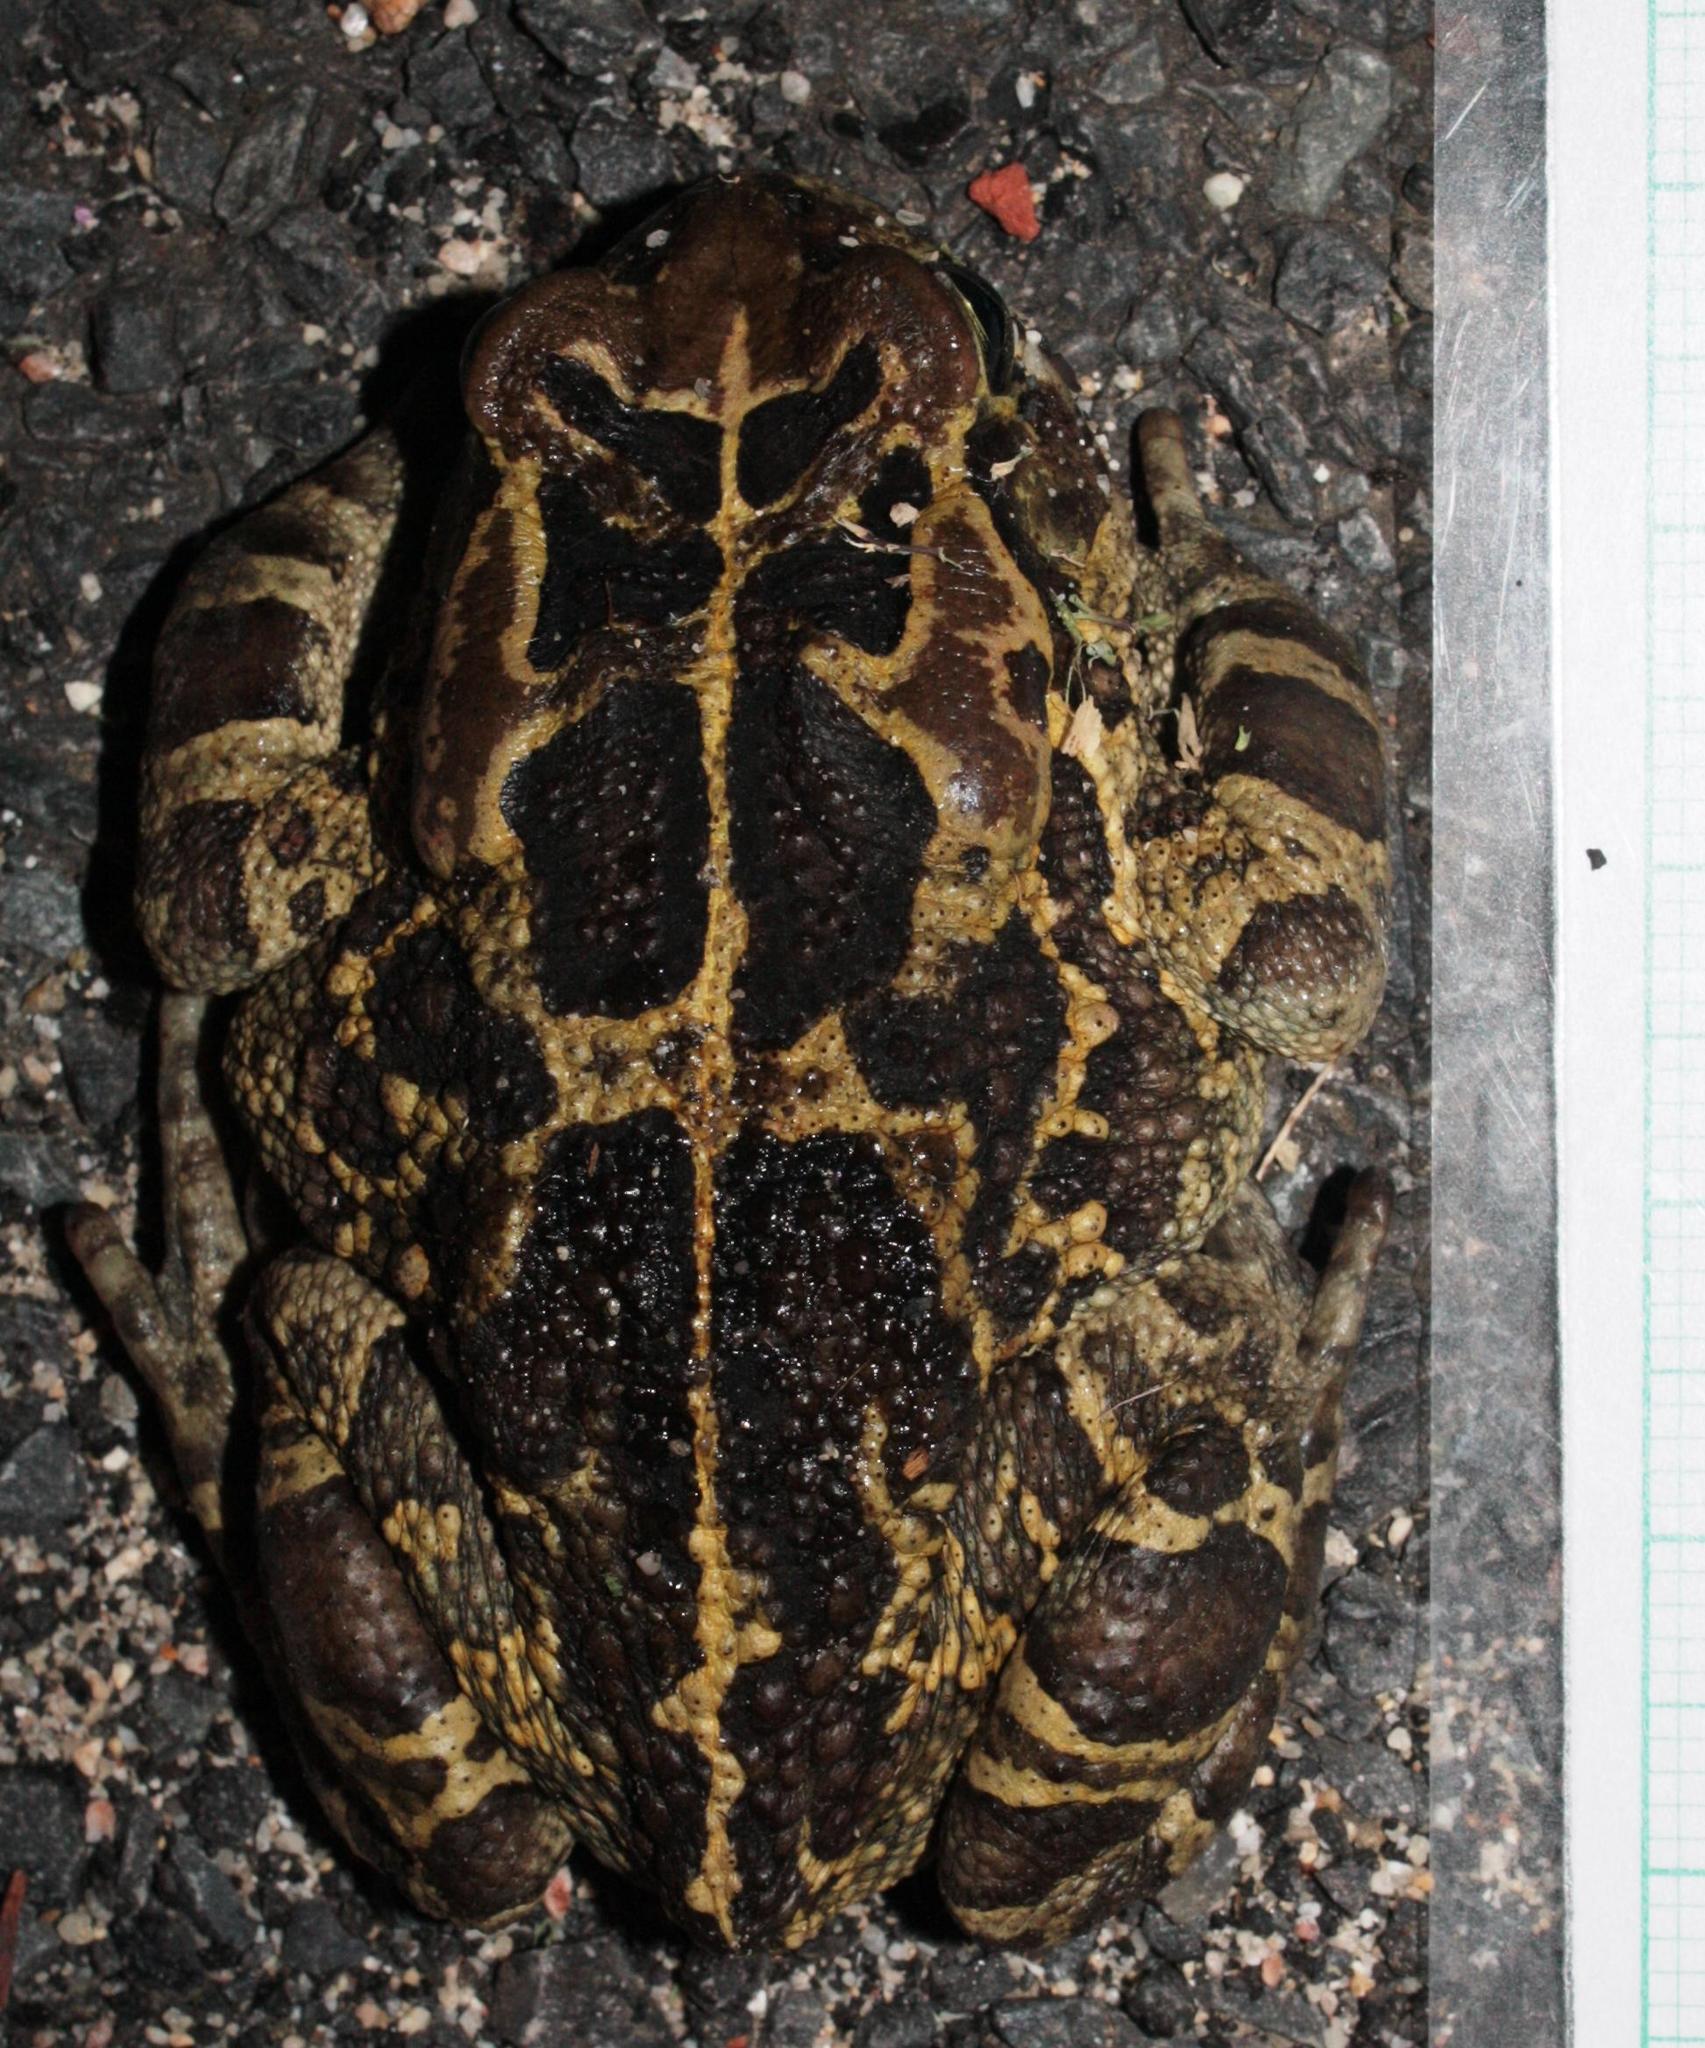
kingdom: Animalia
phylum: Chordata
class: Amphibia
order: Anura
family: Bufonidae
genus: Sclerophrys
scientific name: Sclerophrys pantherina
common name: Panther toad
